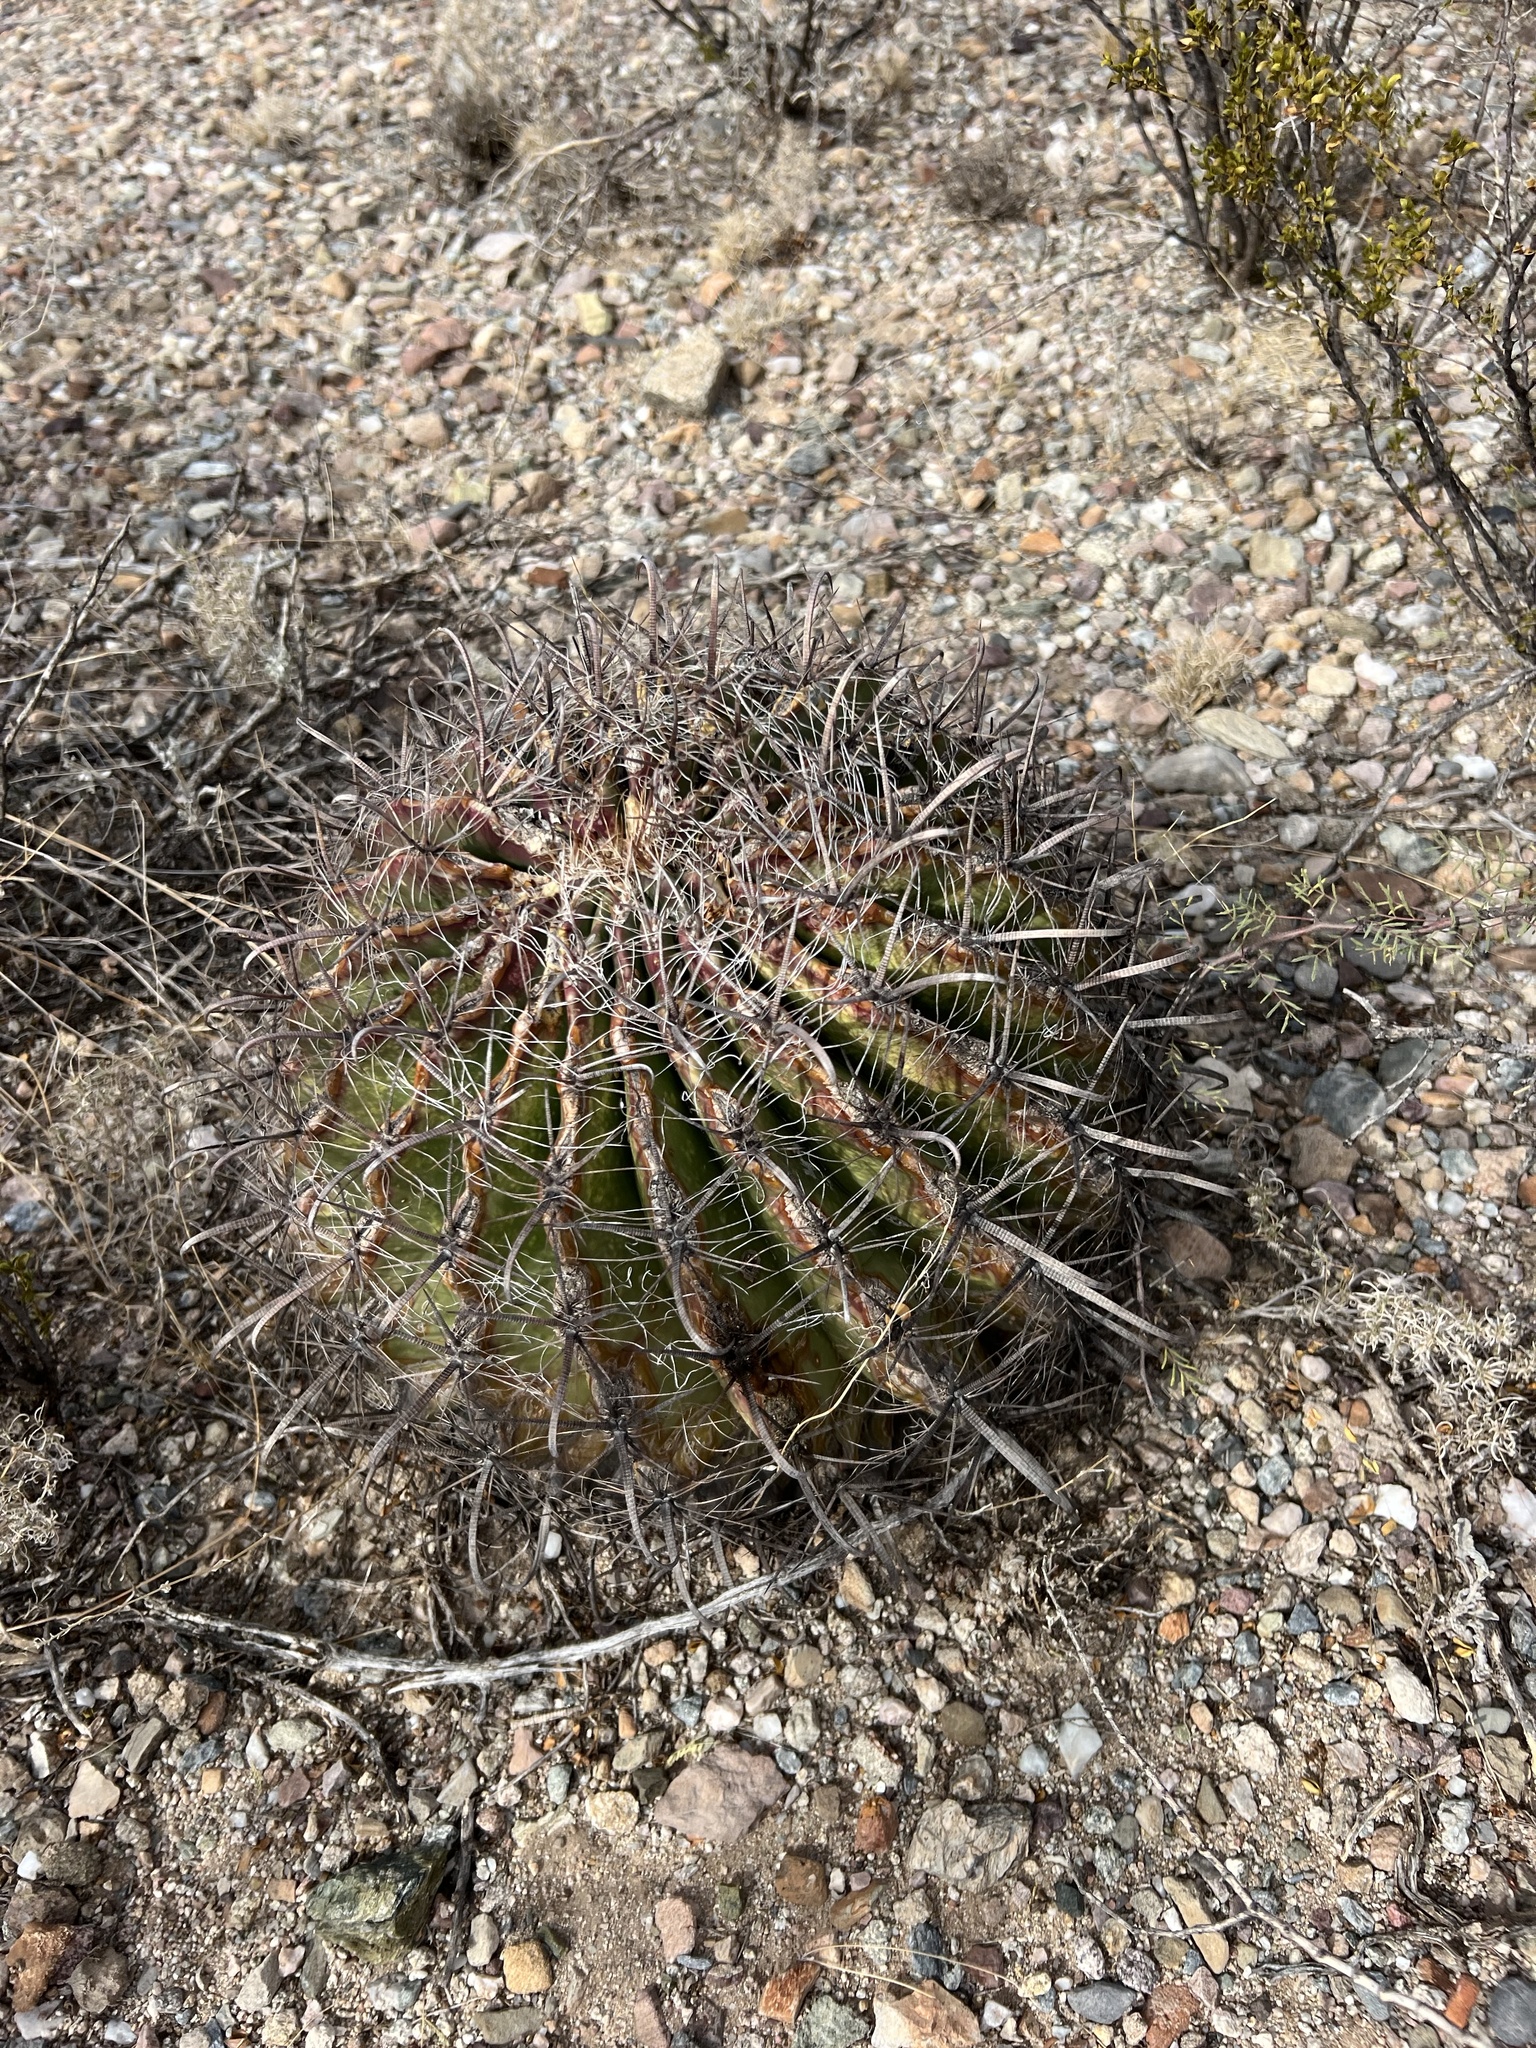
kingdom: Plantae
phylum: Tracheophyta
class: Magnoliopsida
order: Caryophyllales
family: Cactaceae
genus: Ferocactus
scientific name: Ferocactus wislizeni
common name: Candy barrel cactus
